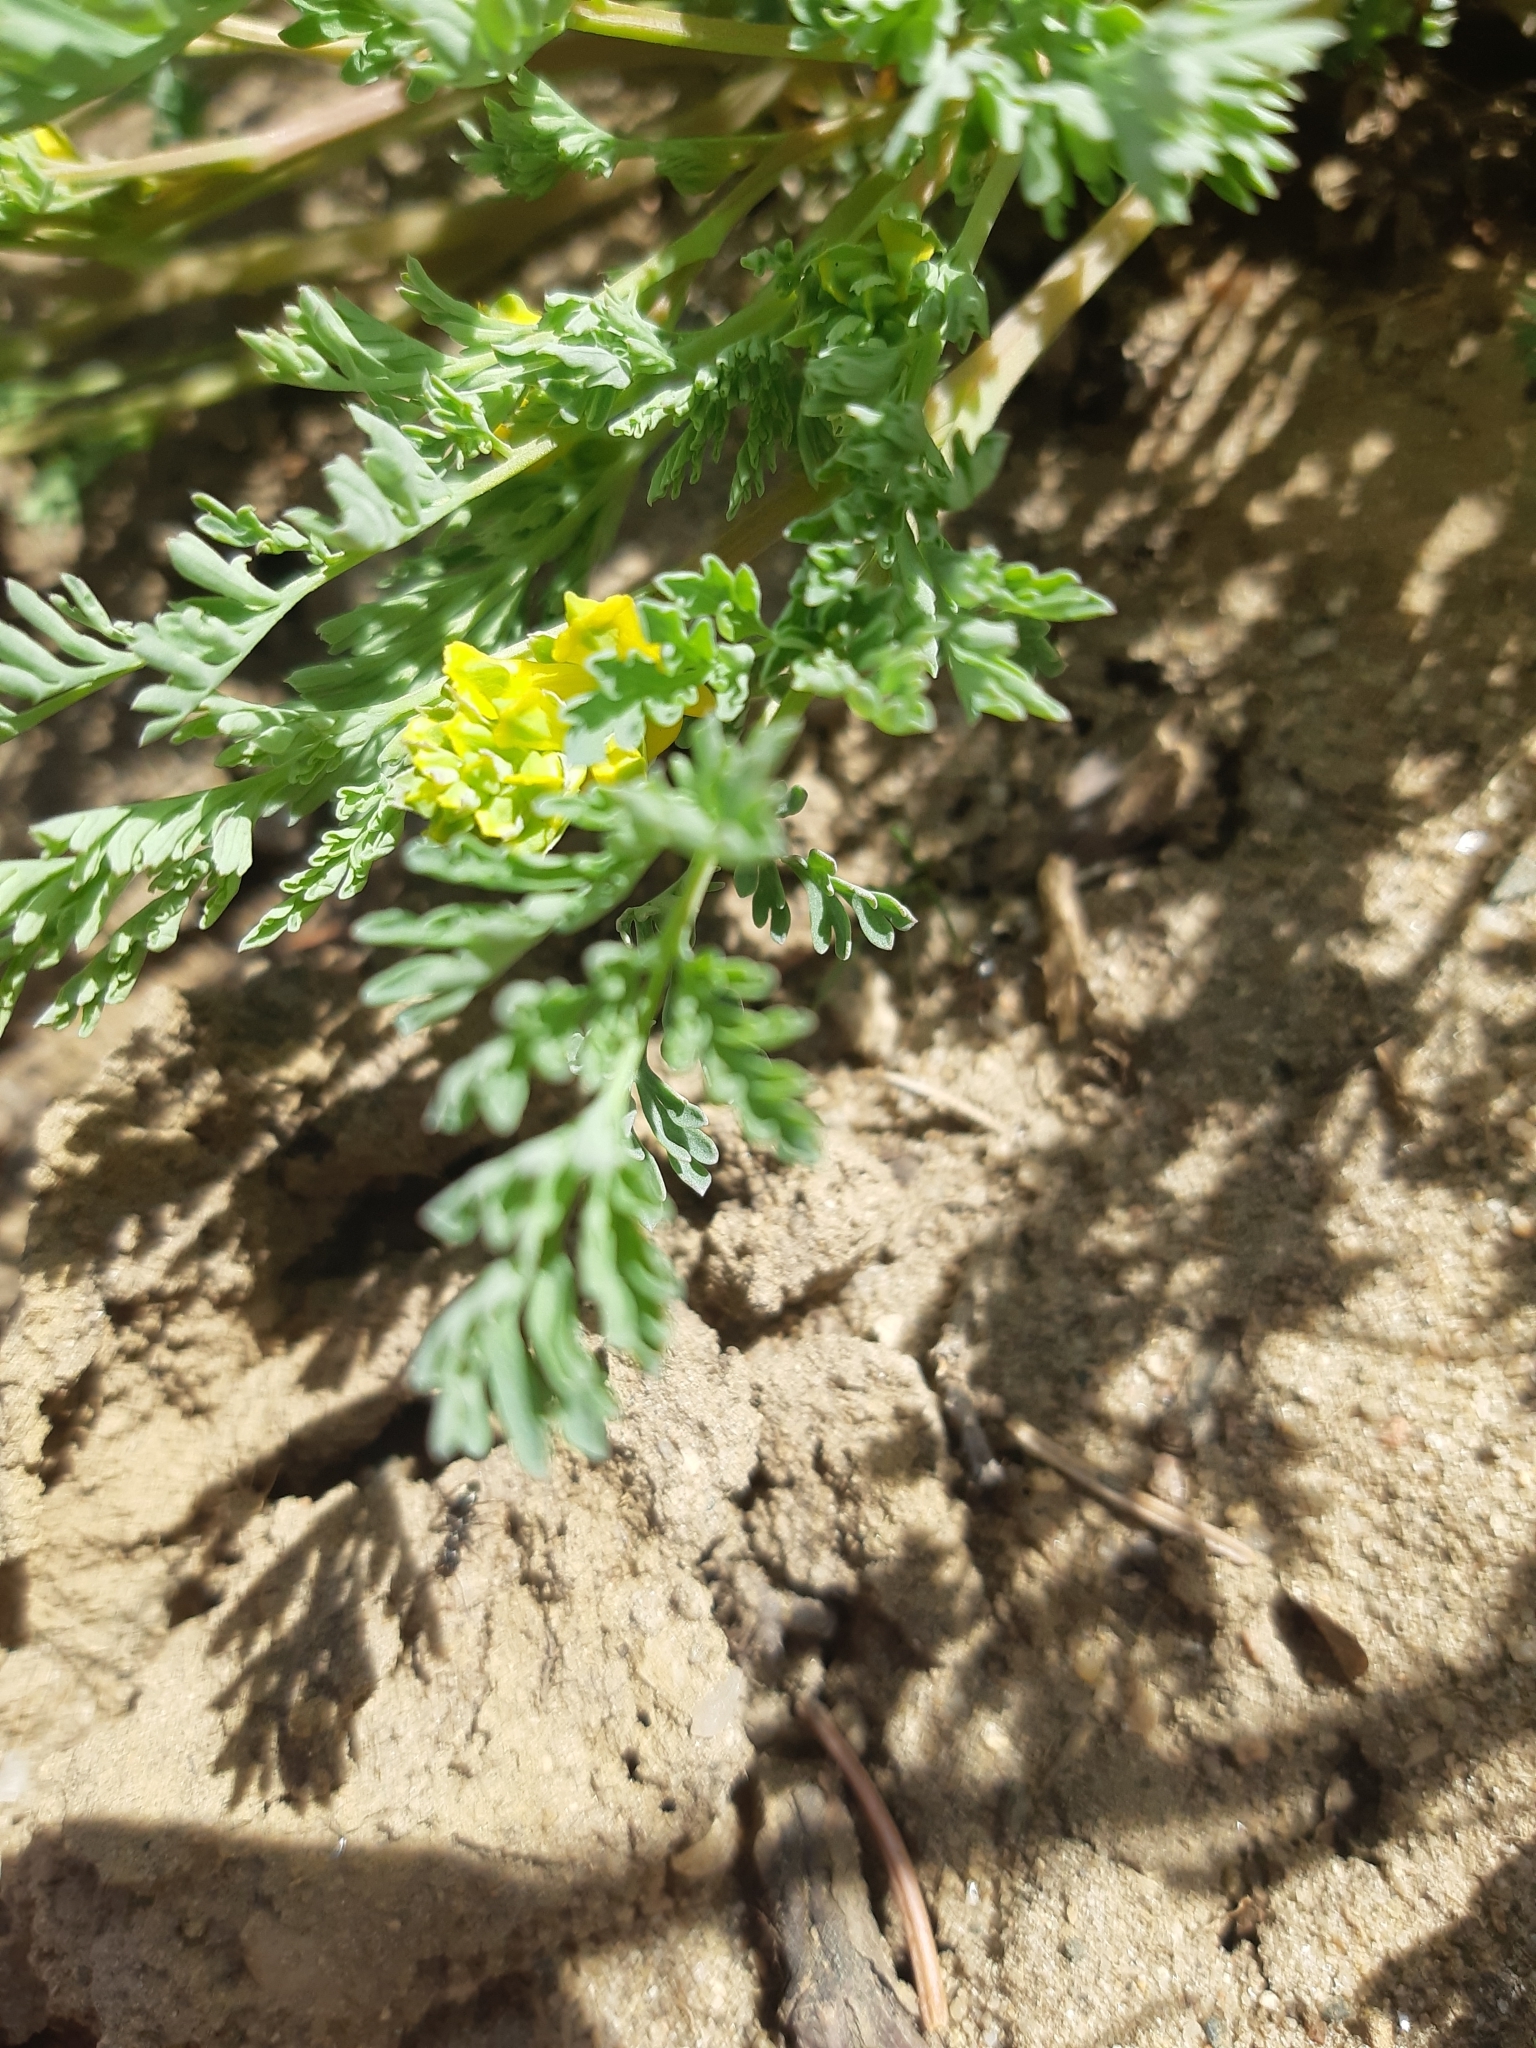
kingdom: Plantae
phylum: Tracheophyta
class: Magnoliopsida
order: Ranunculales
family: Papaveraceae
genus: Corydalis
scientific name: Corydalis aurea
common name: Golden corydalis
